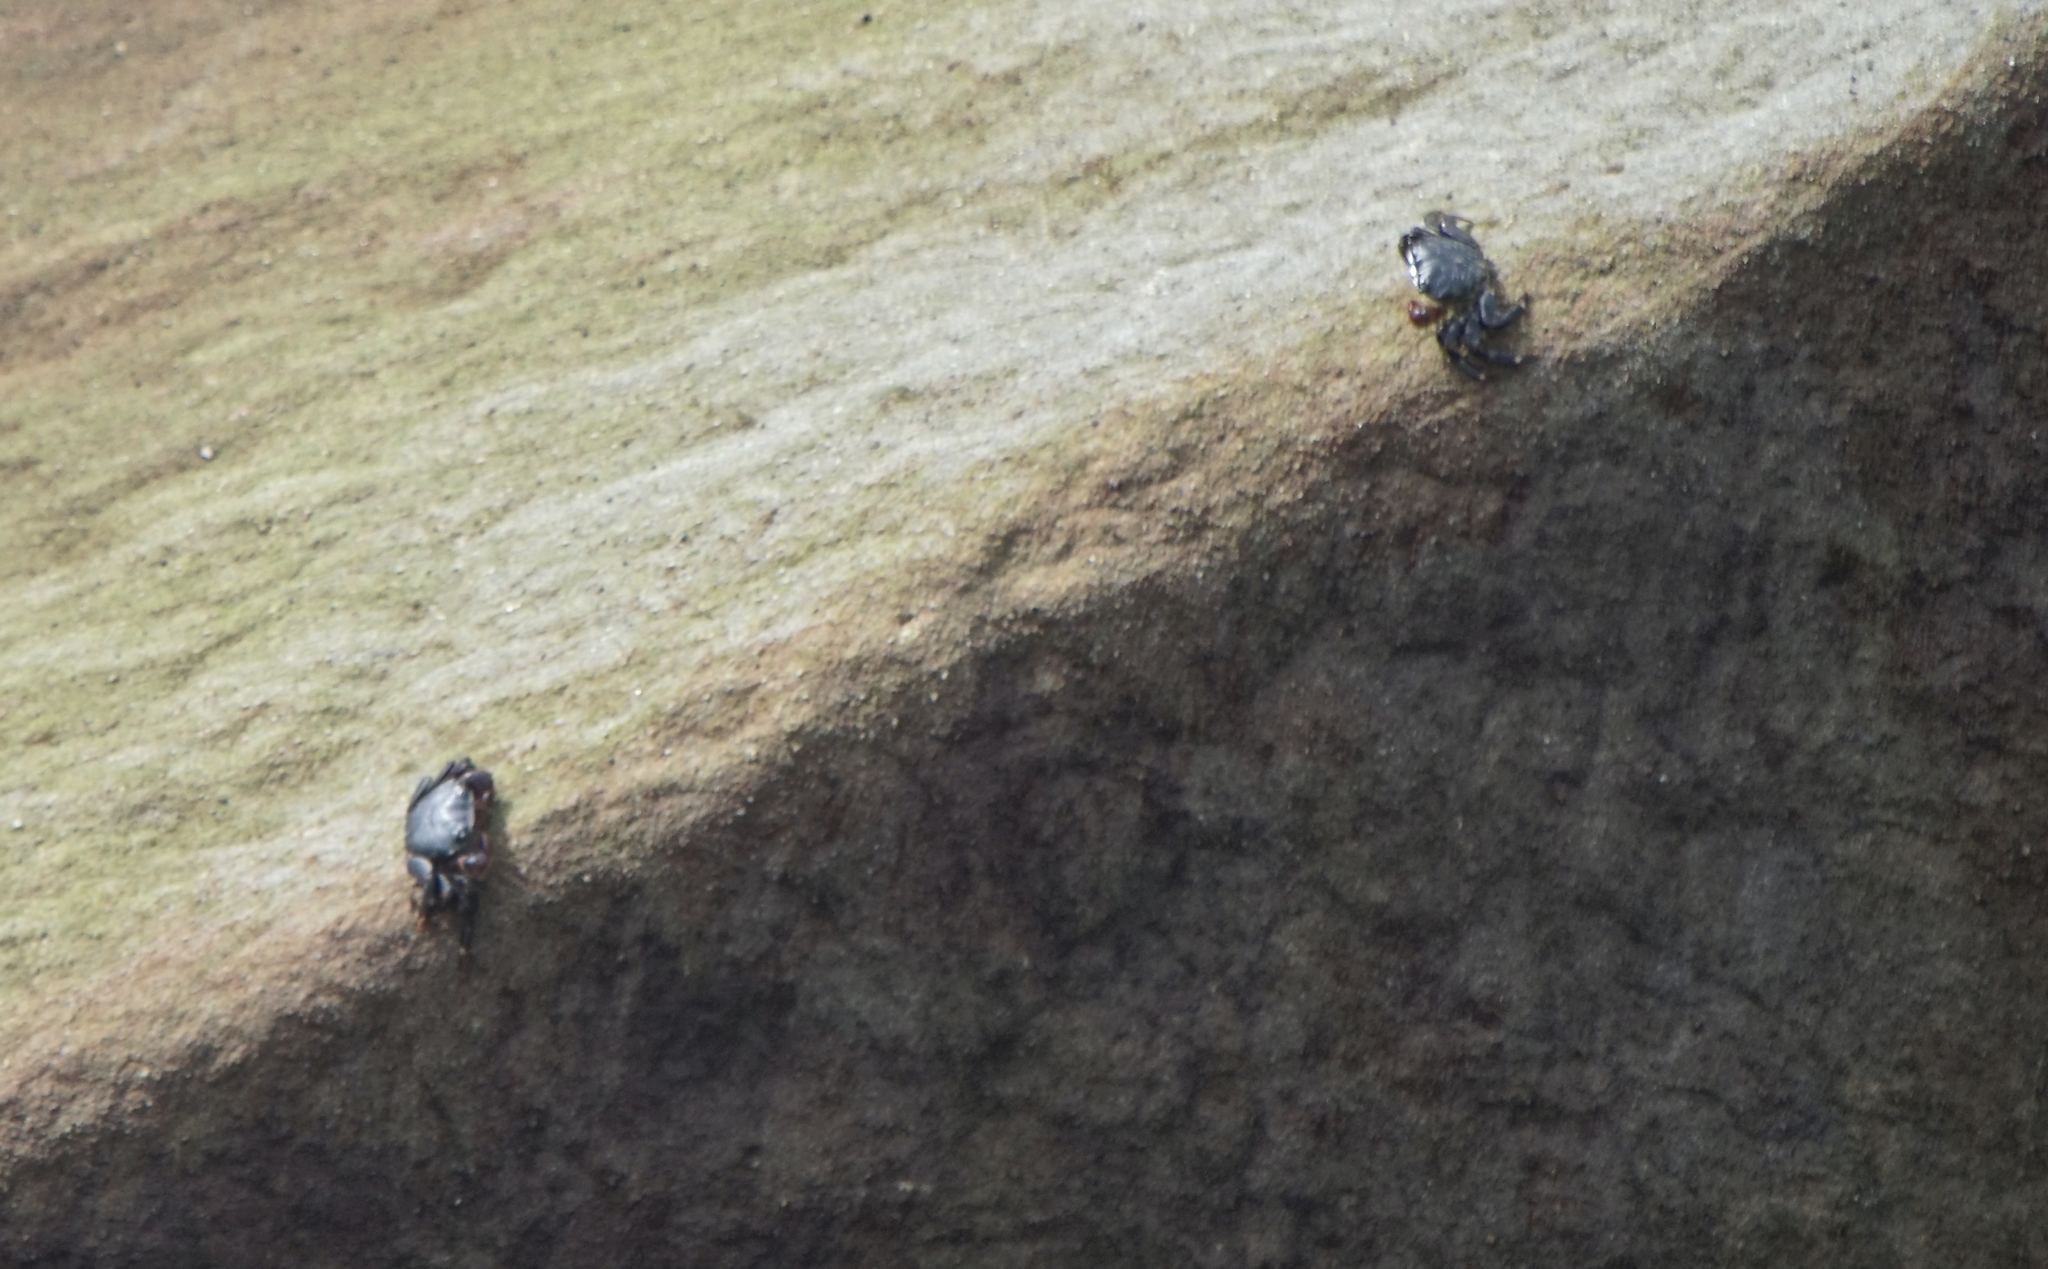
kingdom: Animalia
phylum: Arthropoda
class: Malacostraca
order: Decapoda
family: Grapsidae
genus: Pachygrapsus
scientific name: Pachygrapsus crassipes
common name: Striped shore crab
